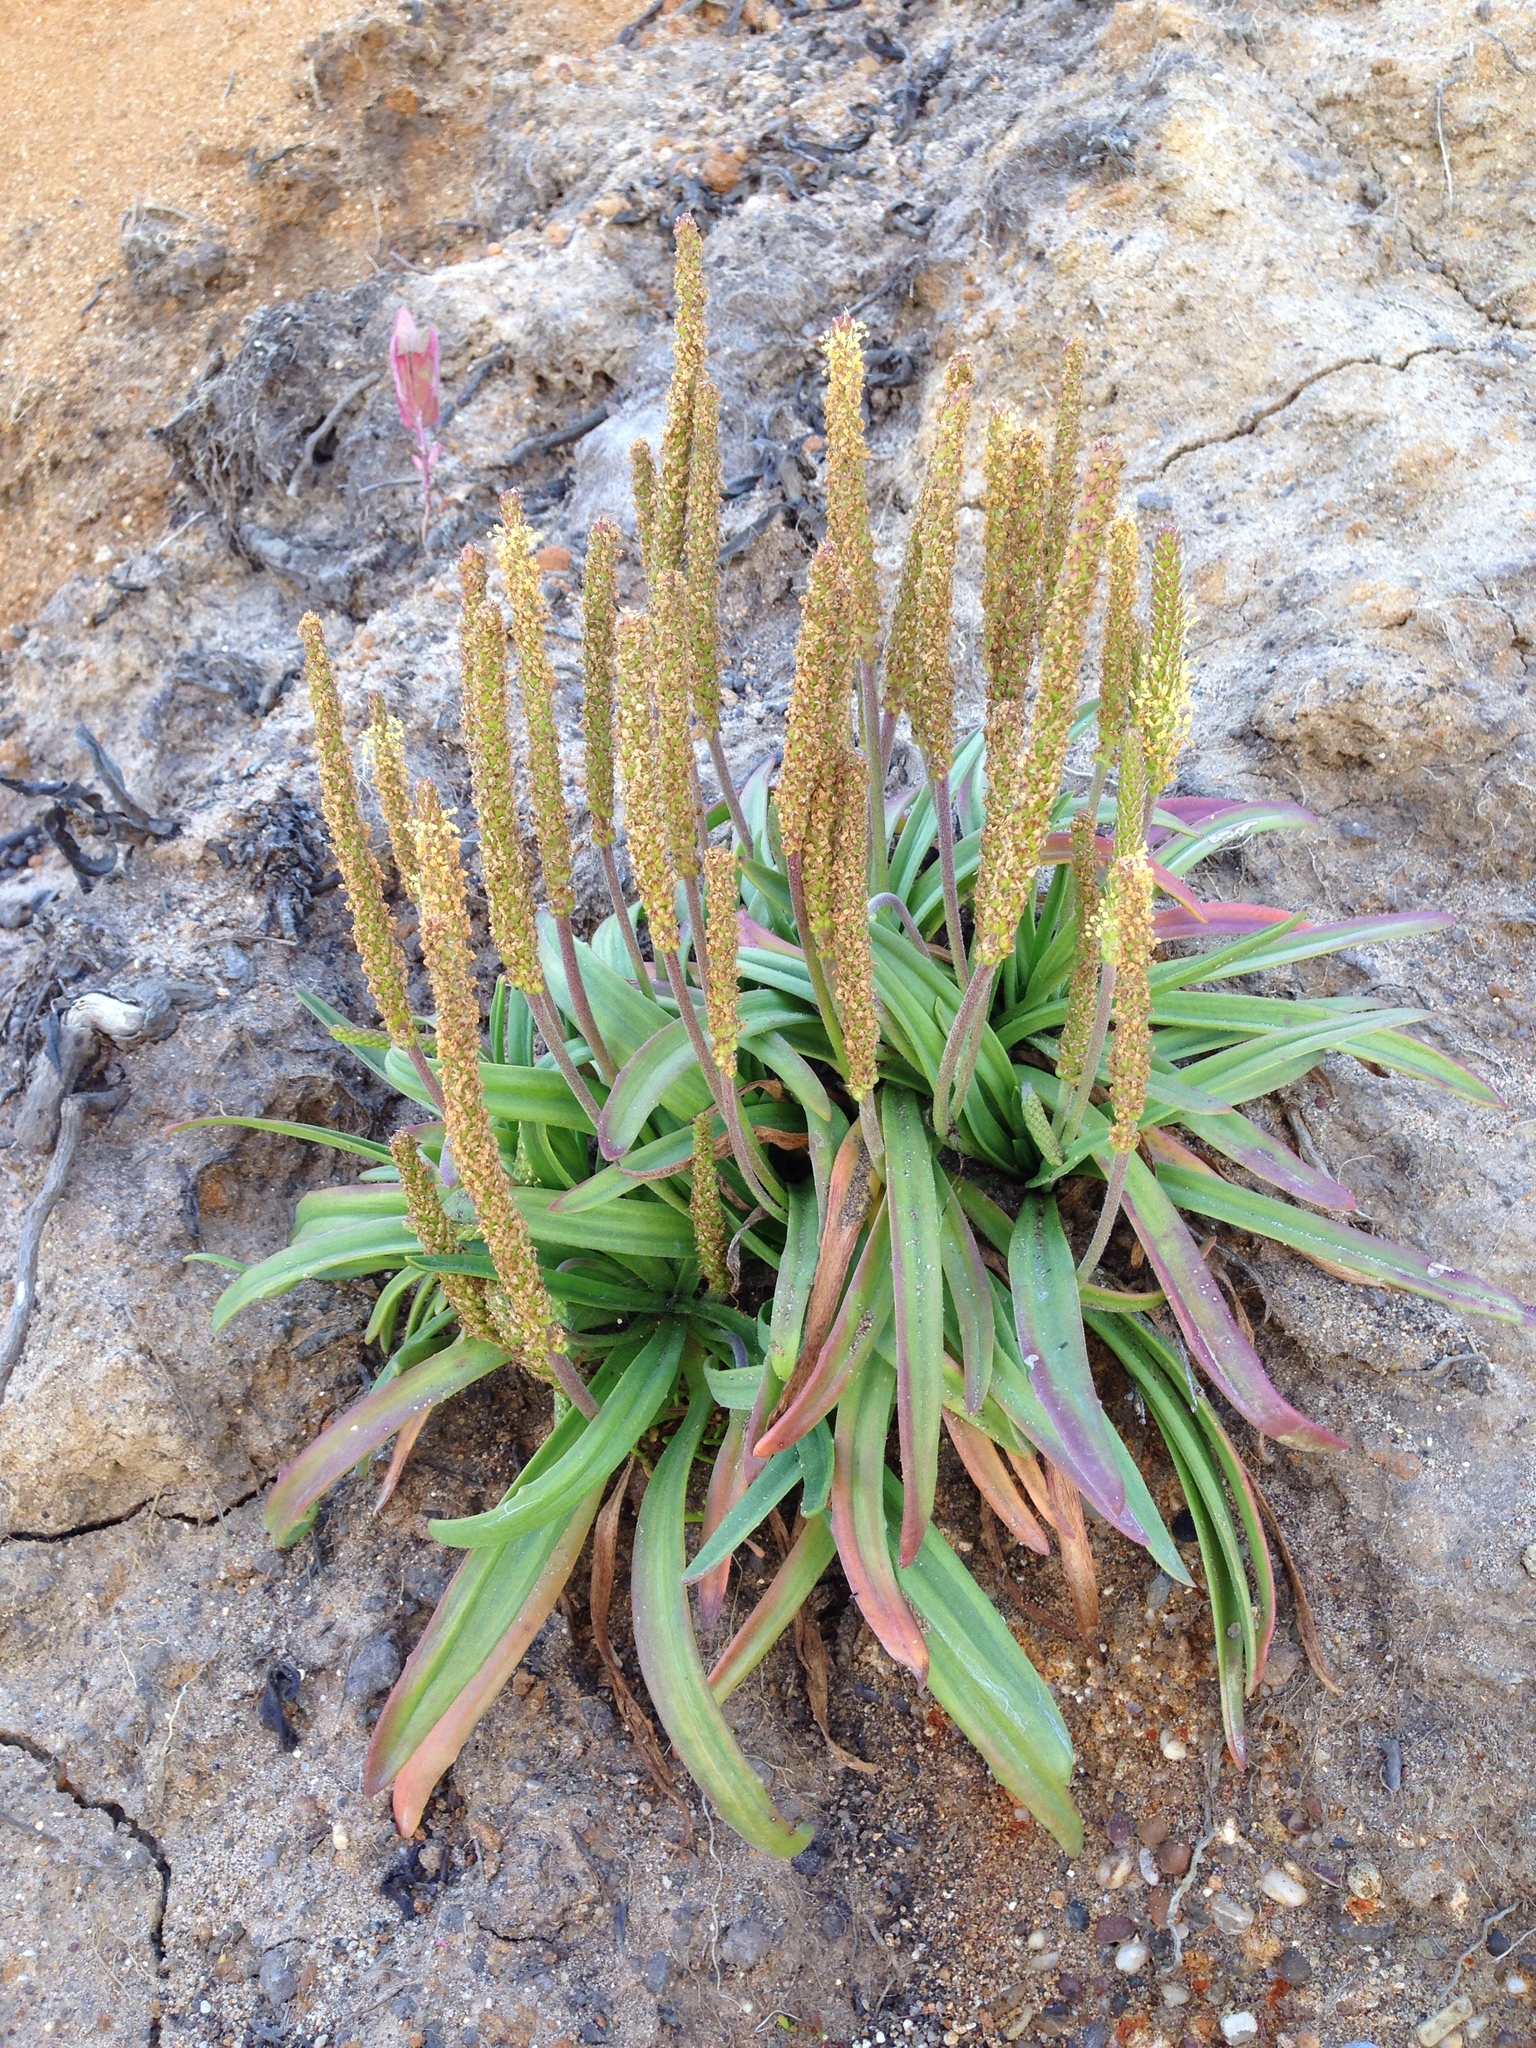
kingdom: Plantae
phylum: Tracheophyta
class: Magnoliopsida
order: Lamiales
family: Plantaginaceae
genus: Plantago
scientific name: Plantago maritima
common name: Sea plantain
